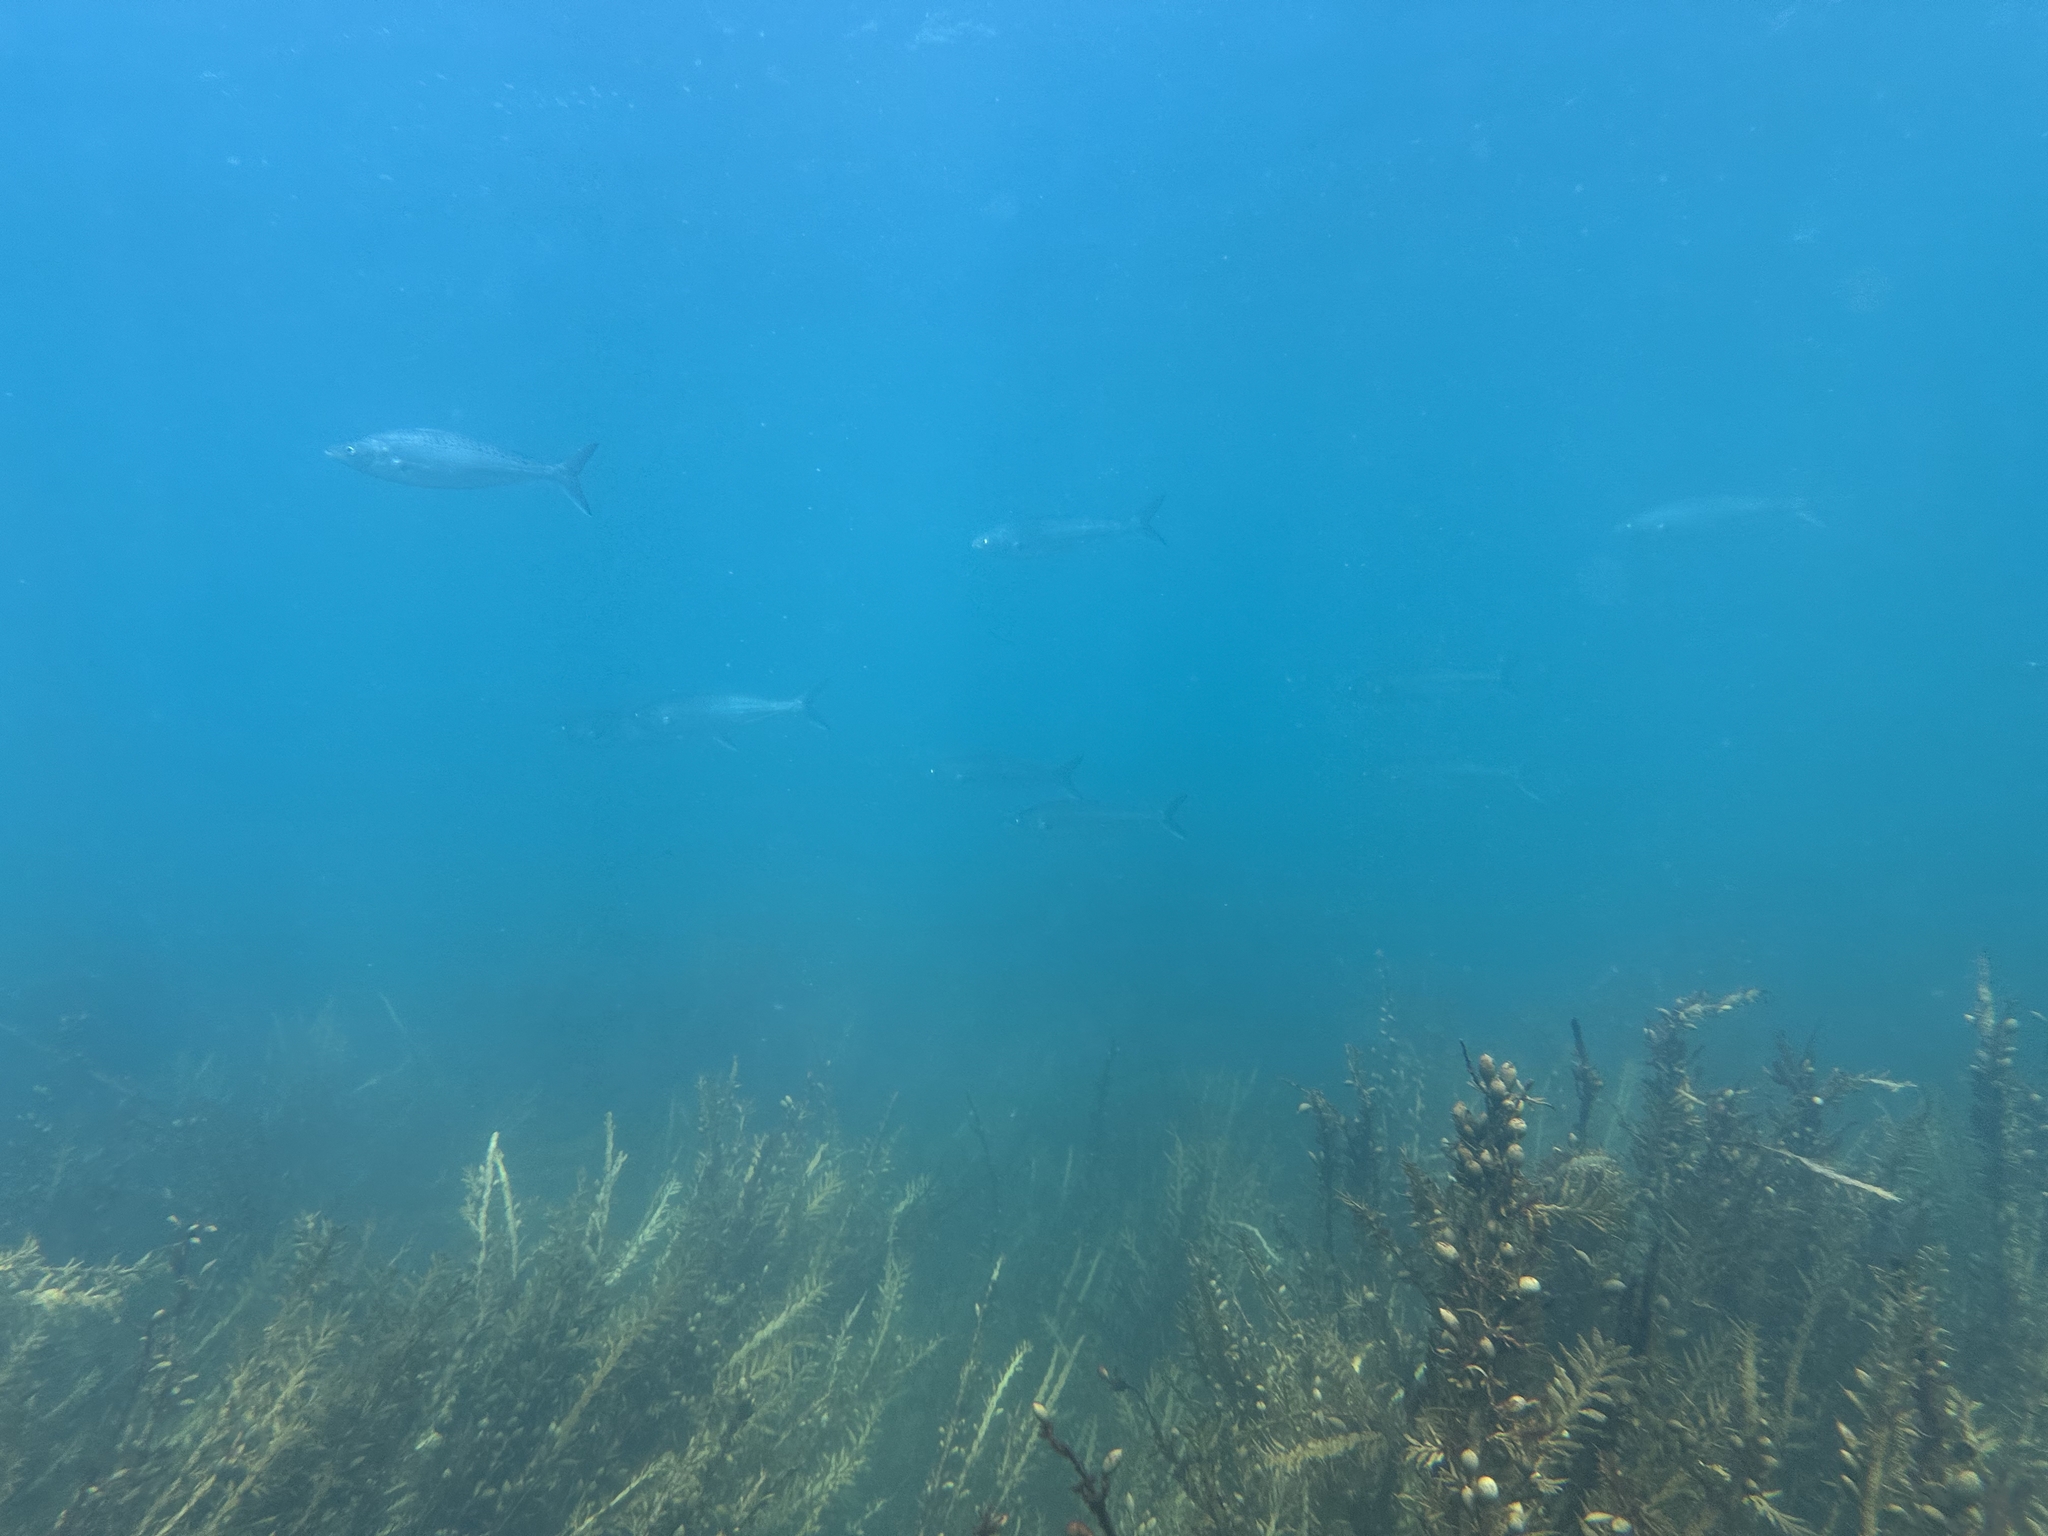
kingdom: Animalia
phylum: Chordata
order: Perciformes
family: Arripidae
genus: Arripis
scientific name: Arripis trutta
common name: Kahawai
